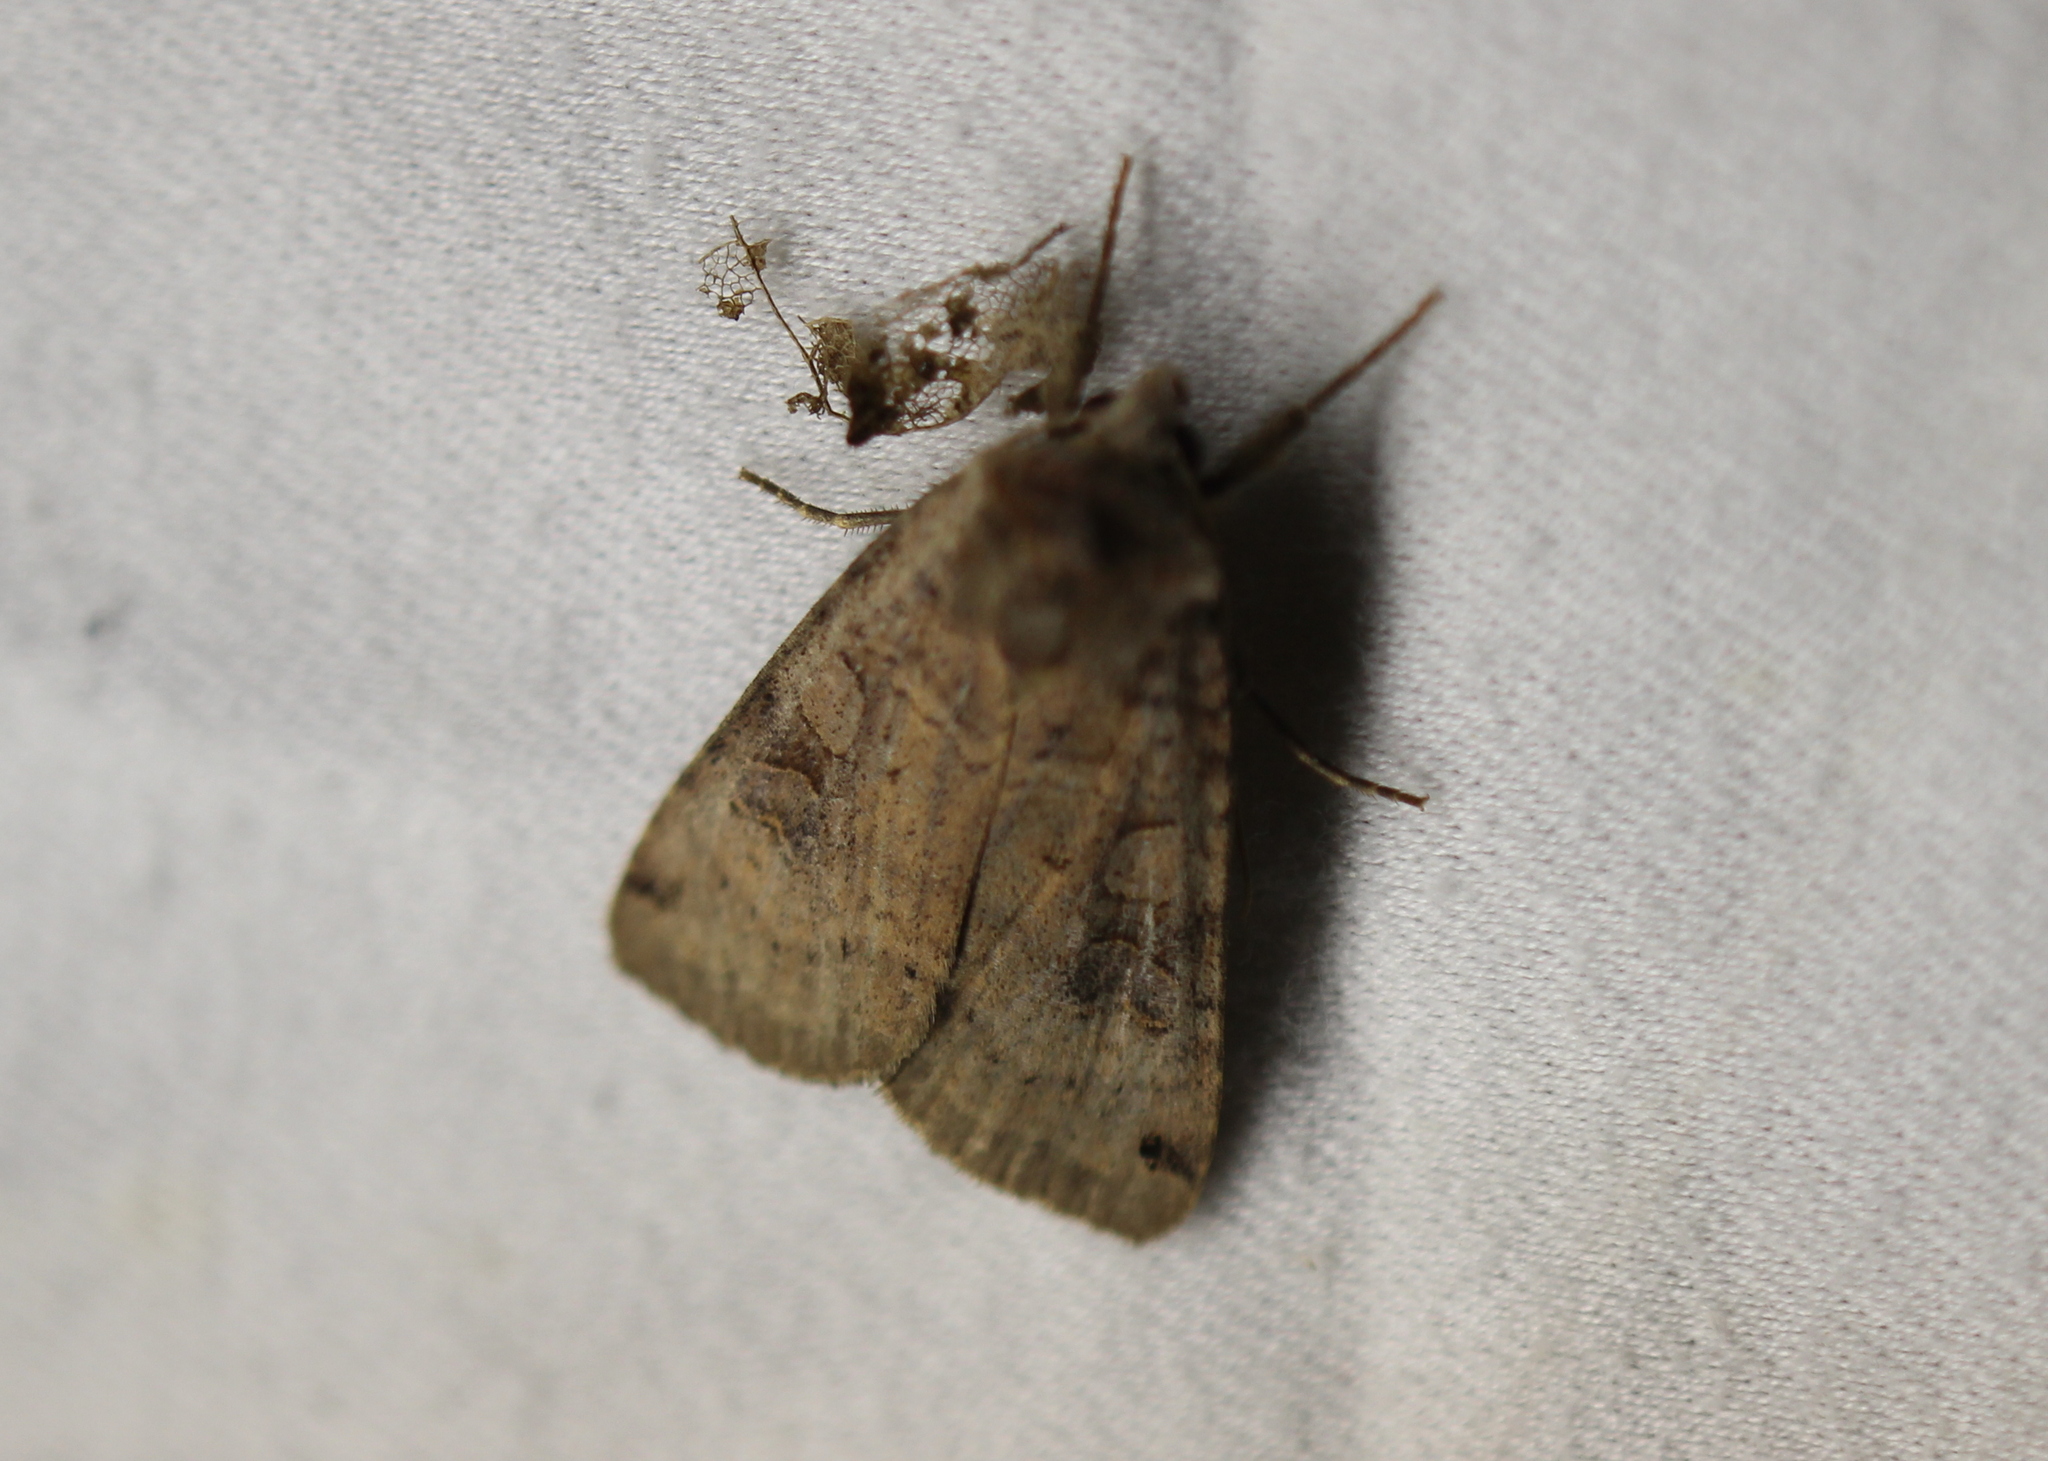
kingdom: Animalia
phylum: Arthropoda
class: Insecta
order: Lepidoptera
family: Noctuidae
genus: Xestia
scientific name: Xestia smithii
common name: Smith's dart
